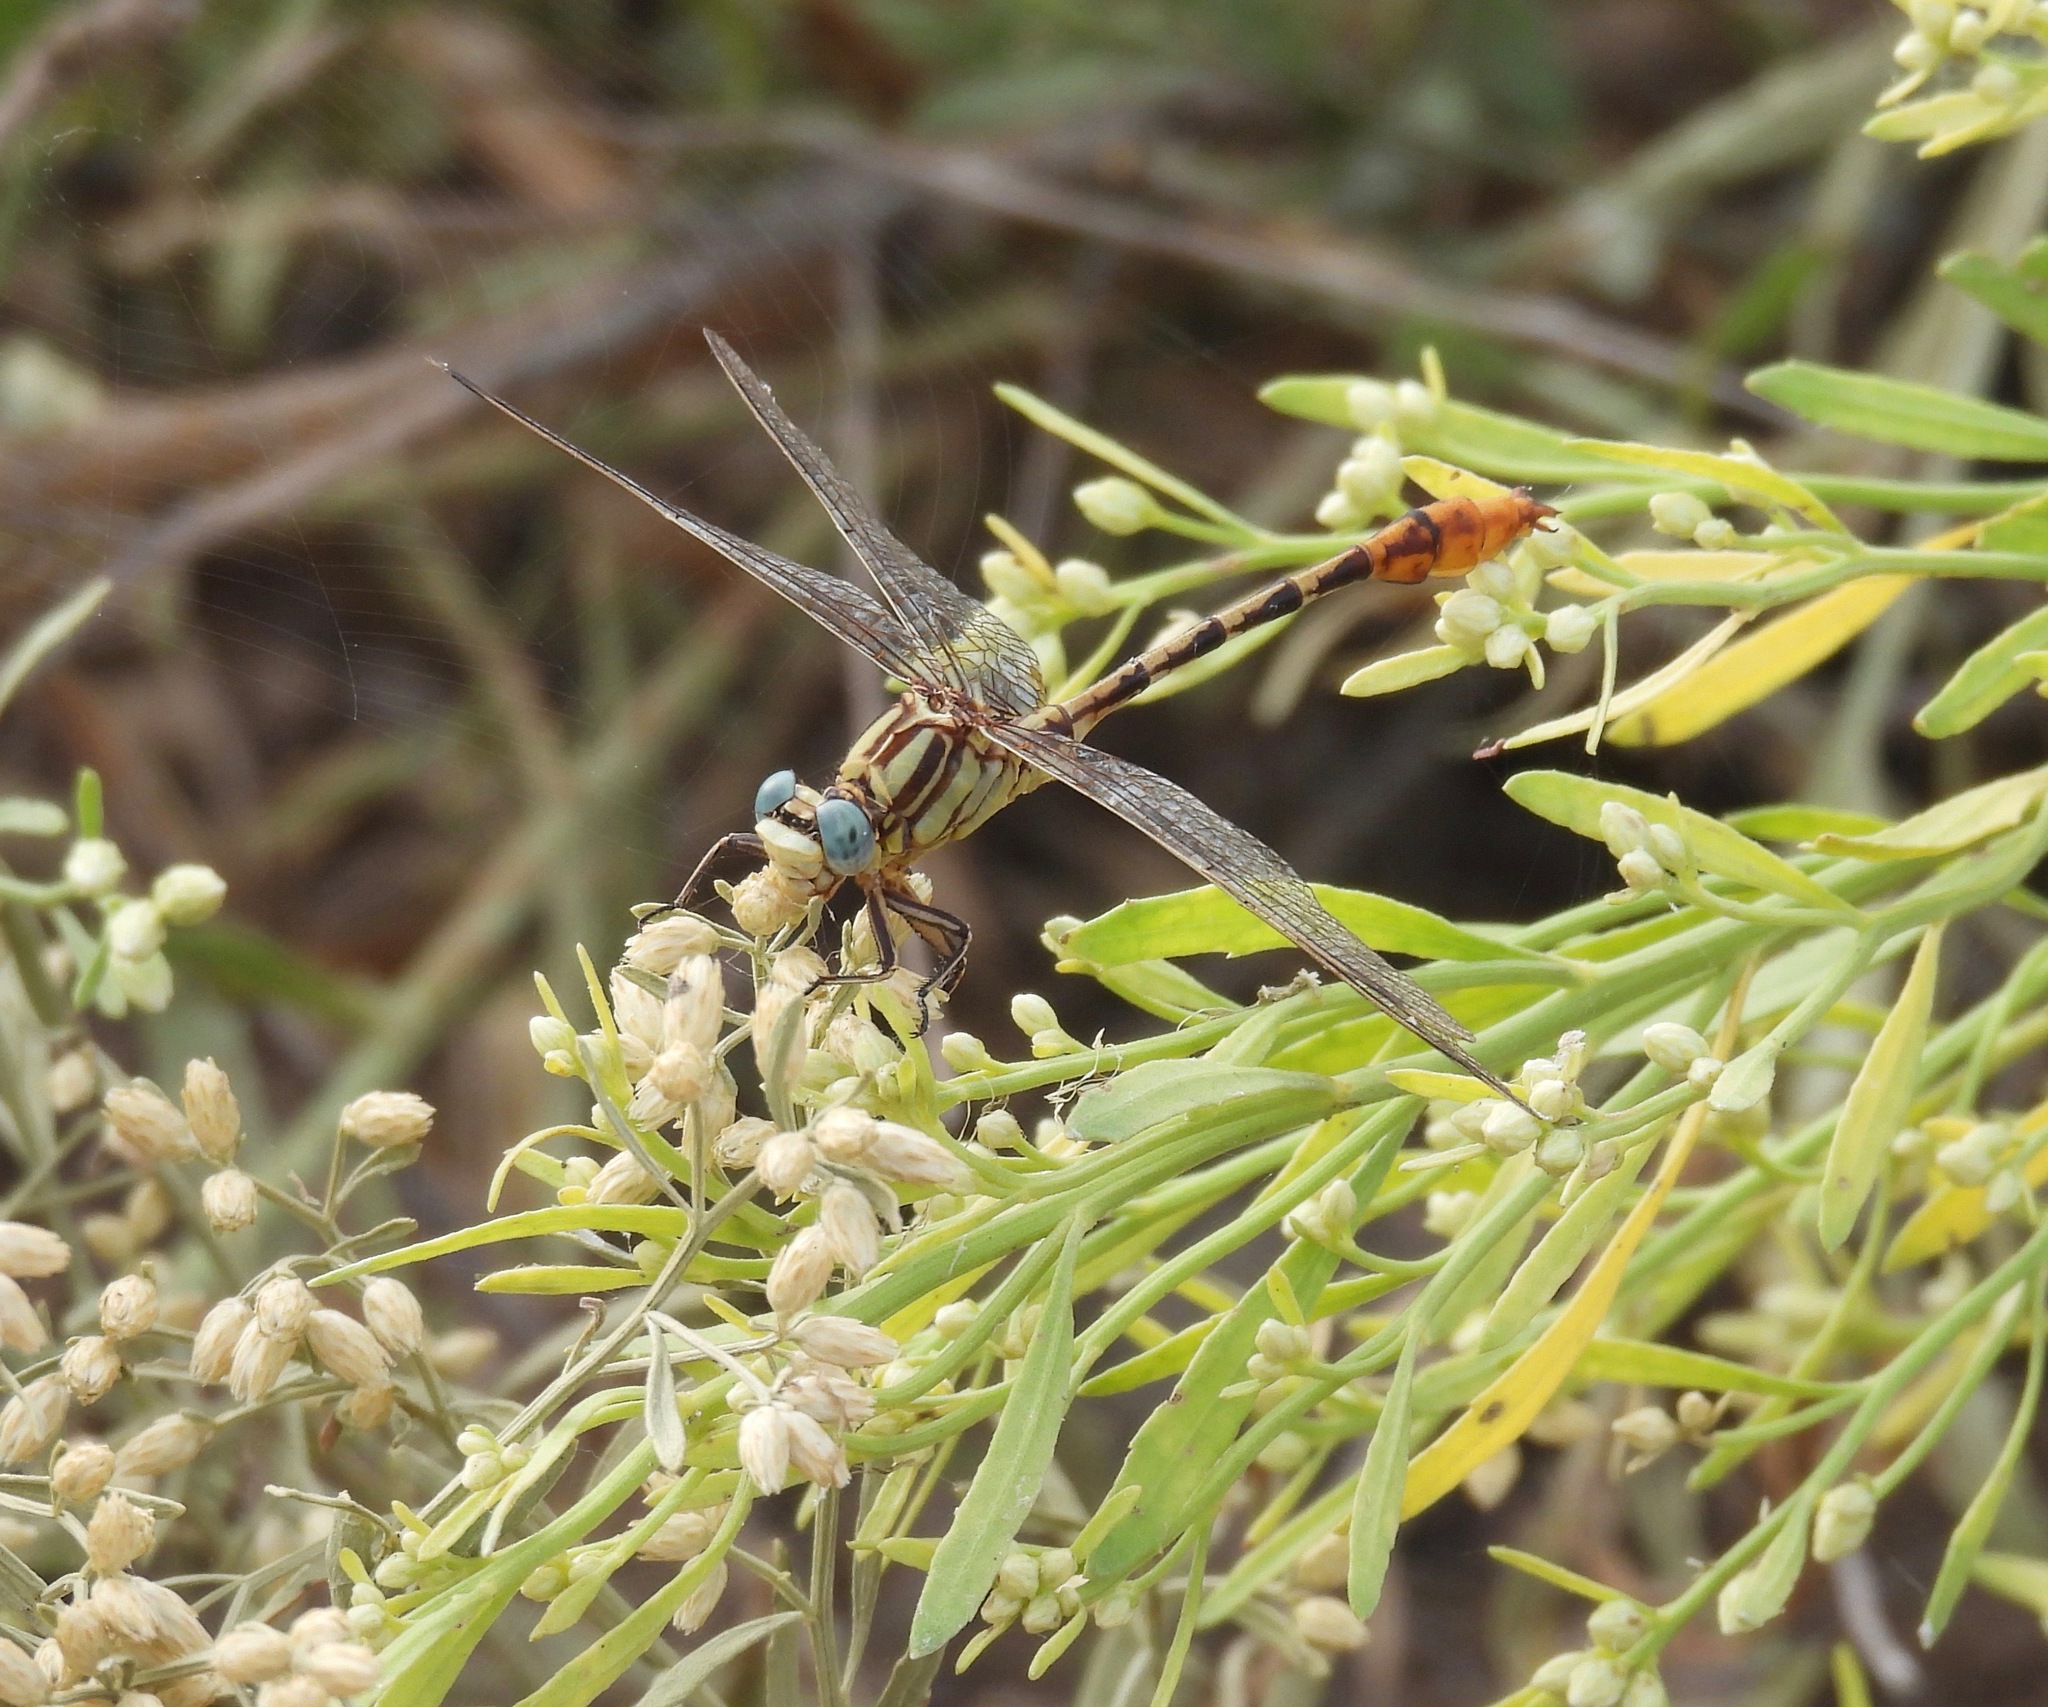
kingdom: Animalia
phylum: Arthropoda
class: Insecta
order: Odonata
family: Gomphidae
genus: Phanogomphus
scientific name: Phanogomphus militaris
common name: Sulphur-tipped clubtail
